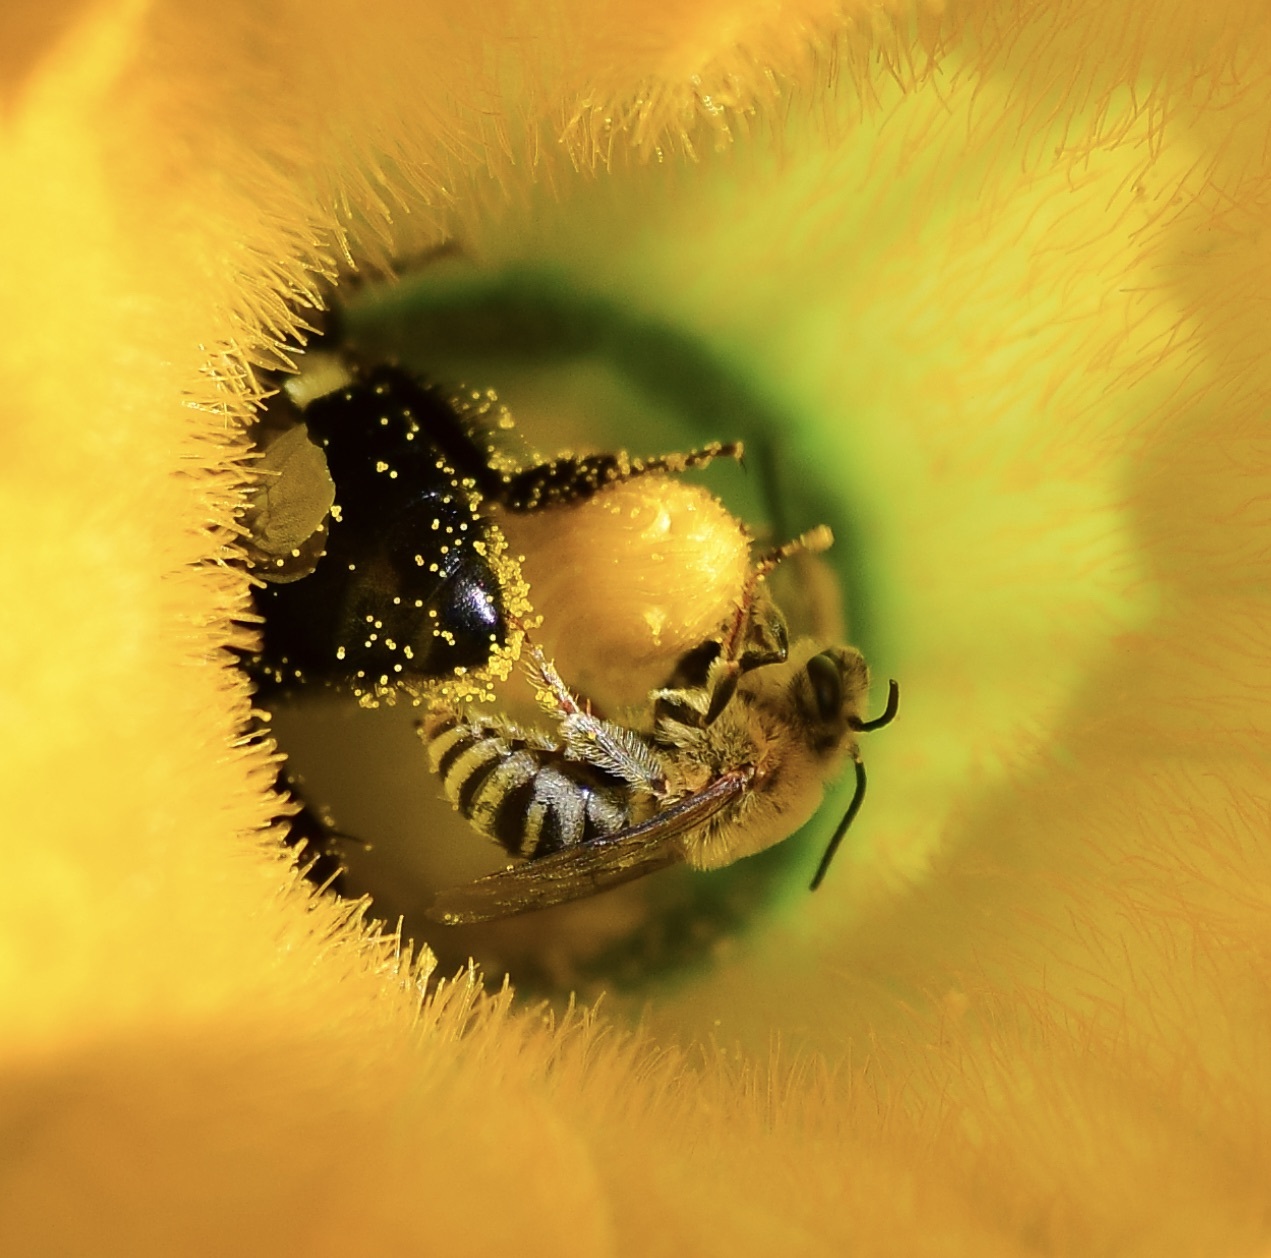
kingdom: Animalia
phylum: Arthropoda
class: Insecta
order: Hymenoptera
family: Apidae
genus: Peponapis
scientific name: Peponapis pruinosa
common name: Pruinose squash bee
